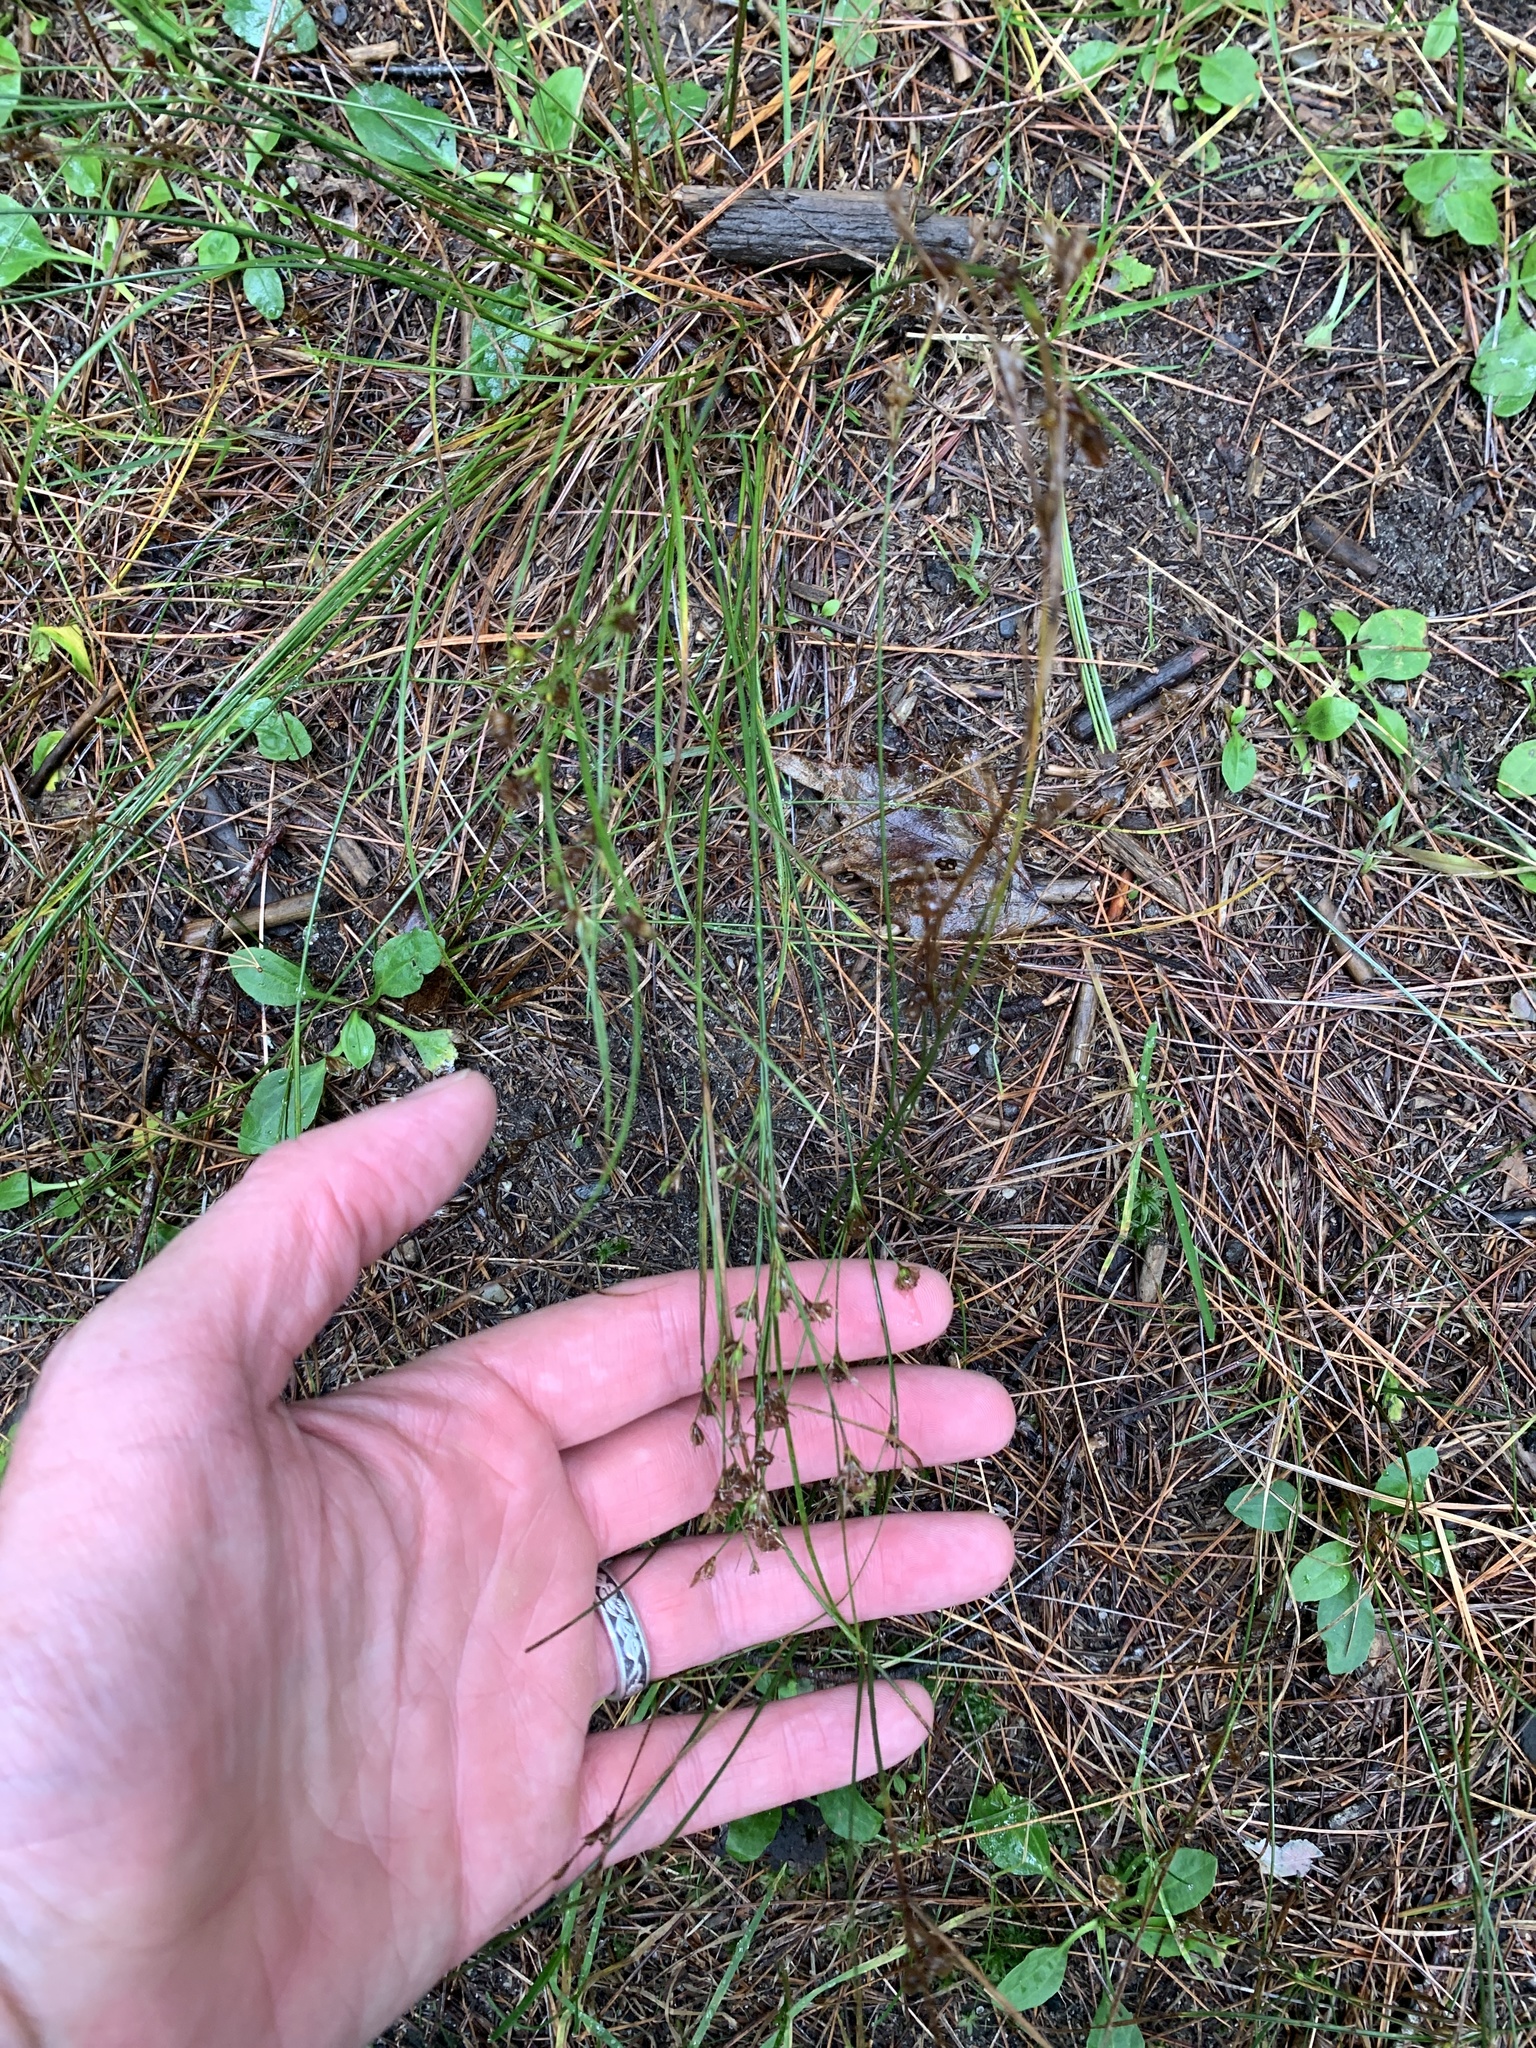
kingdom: Plantae
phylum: Tracheophyta
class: Liliopsida
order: Poales
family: Juncaceae
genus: Juncus
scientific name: Juncus tenuis
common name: Slender rush
